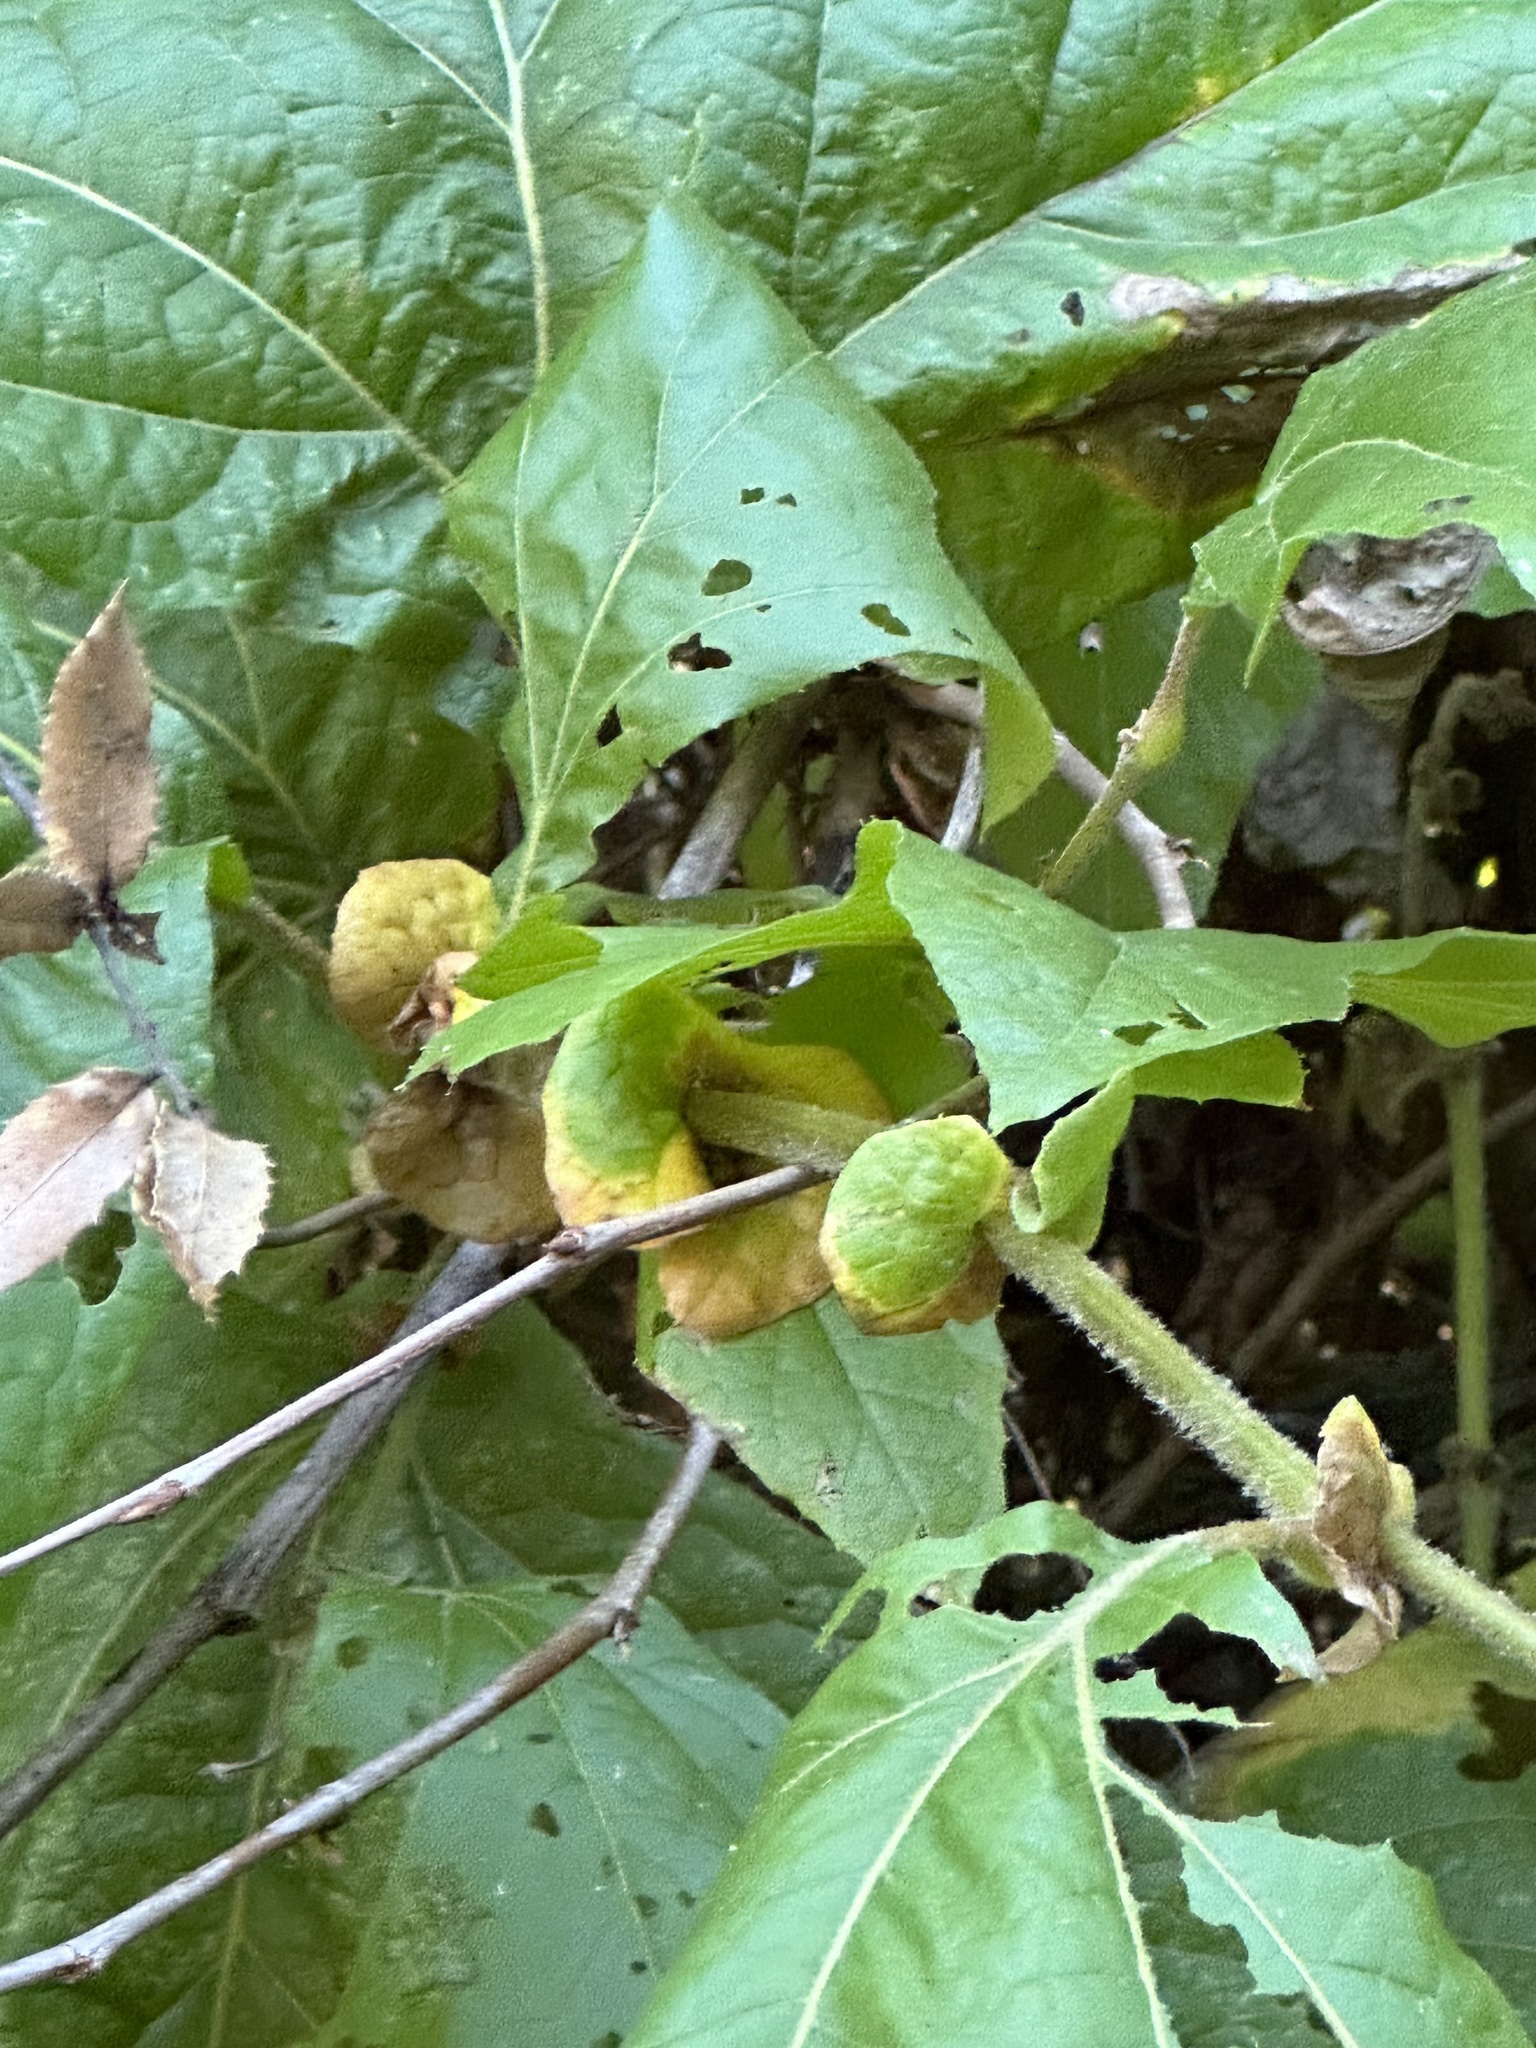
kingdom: Plantae
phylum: Tracheophyta
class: Magnoliopsida
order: Proteales
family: Platanaceae
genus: Platanus
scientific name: Platanus racemosa
